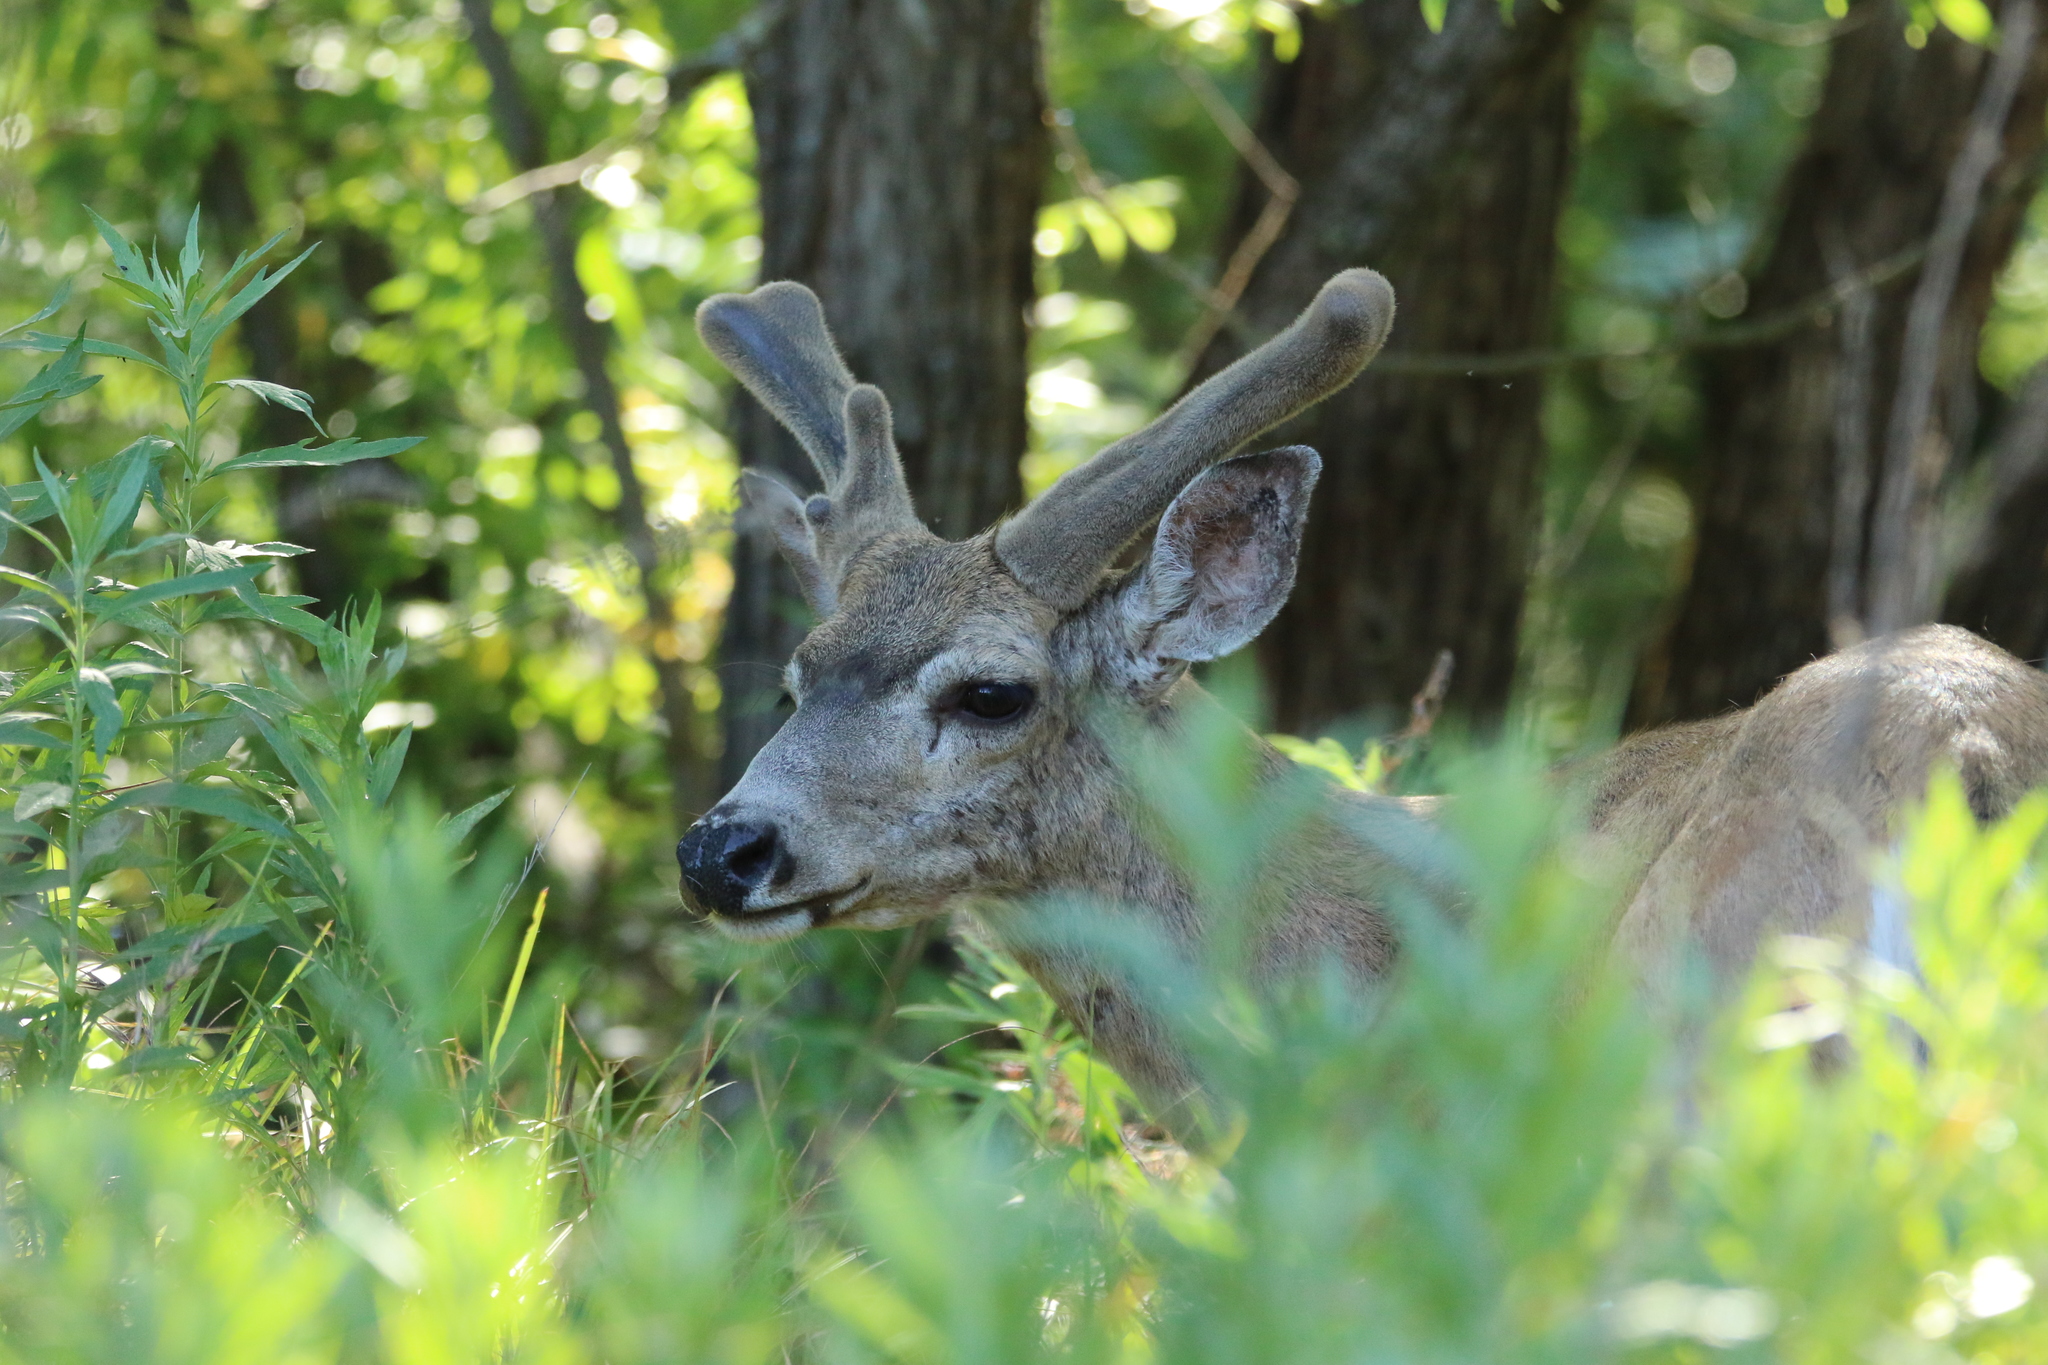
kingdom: Animalia
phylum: Chordata
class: Mammalia
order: Artiodactyla
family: Cervidae
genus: Odocoileus
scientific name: Odocoileus hemionus
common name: Mule deer
